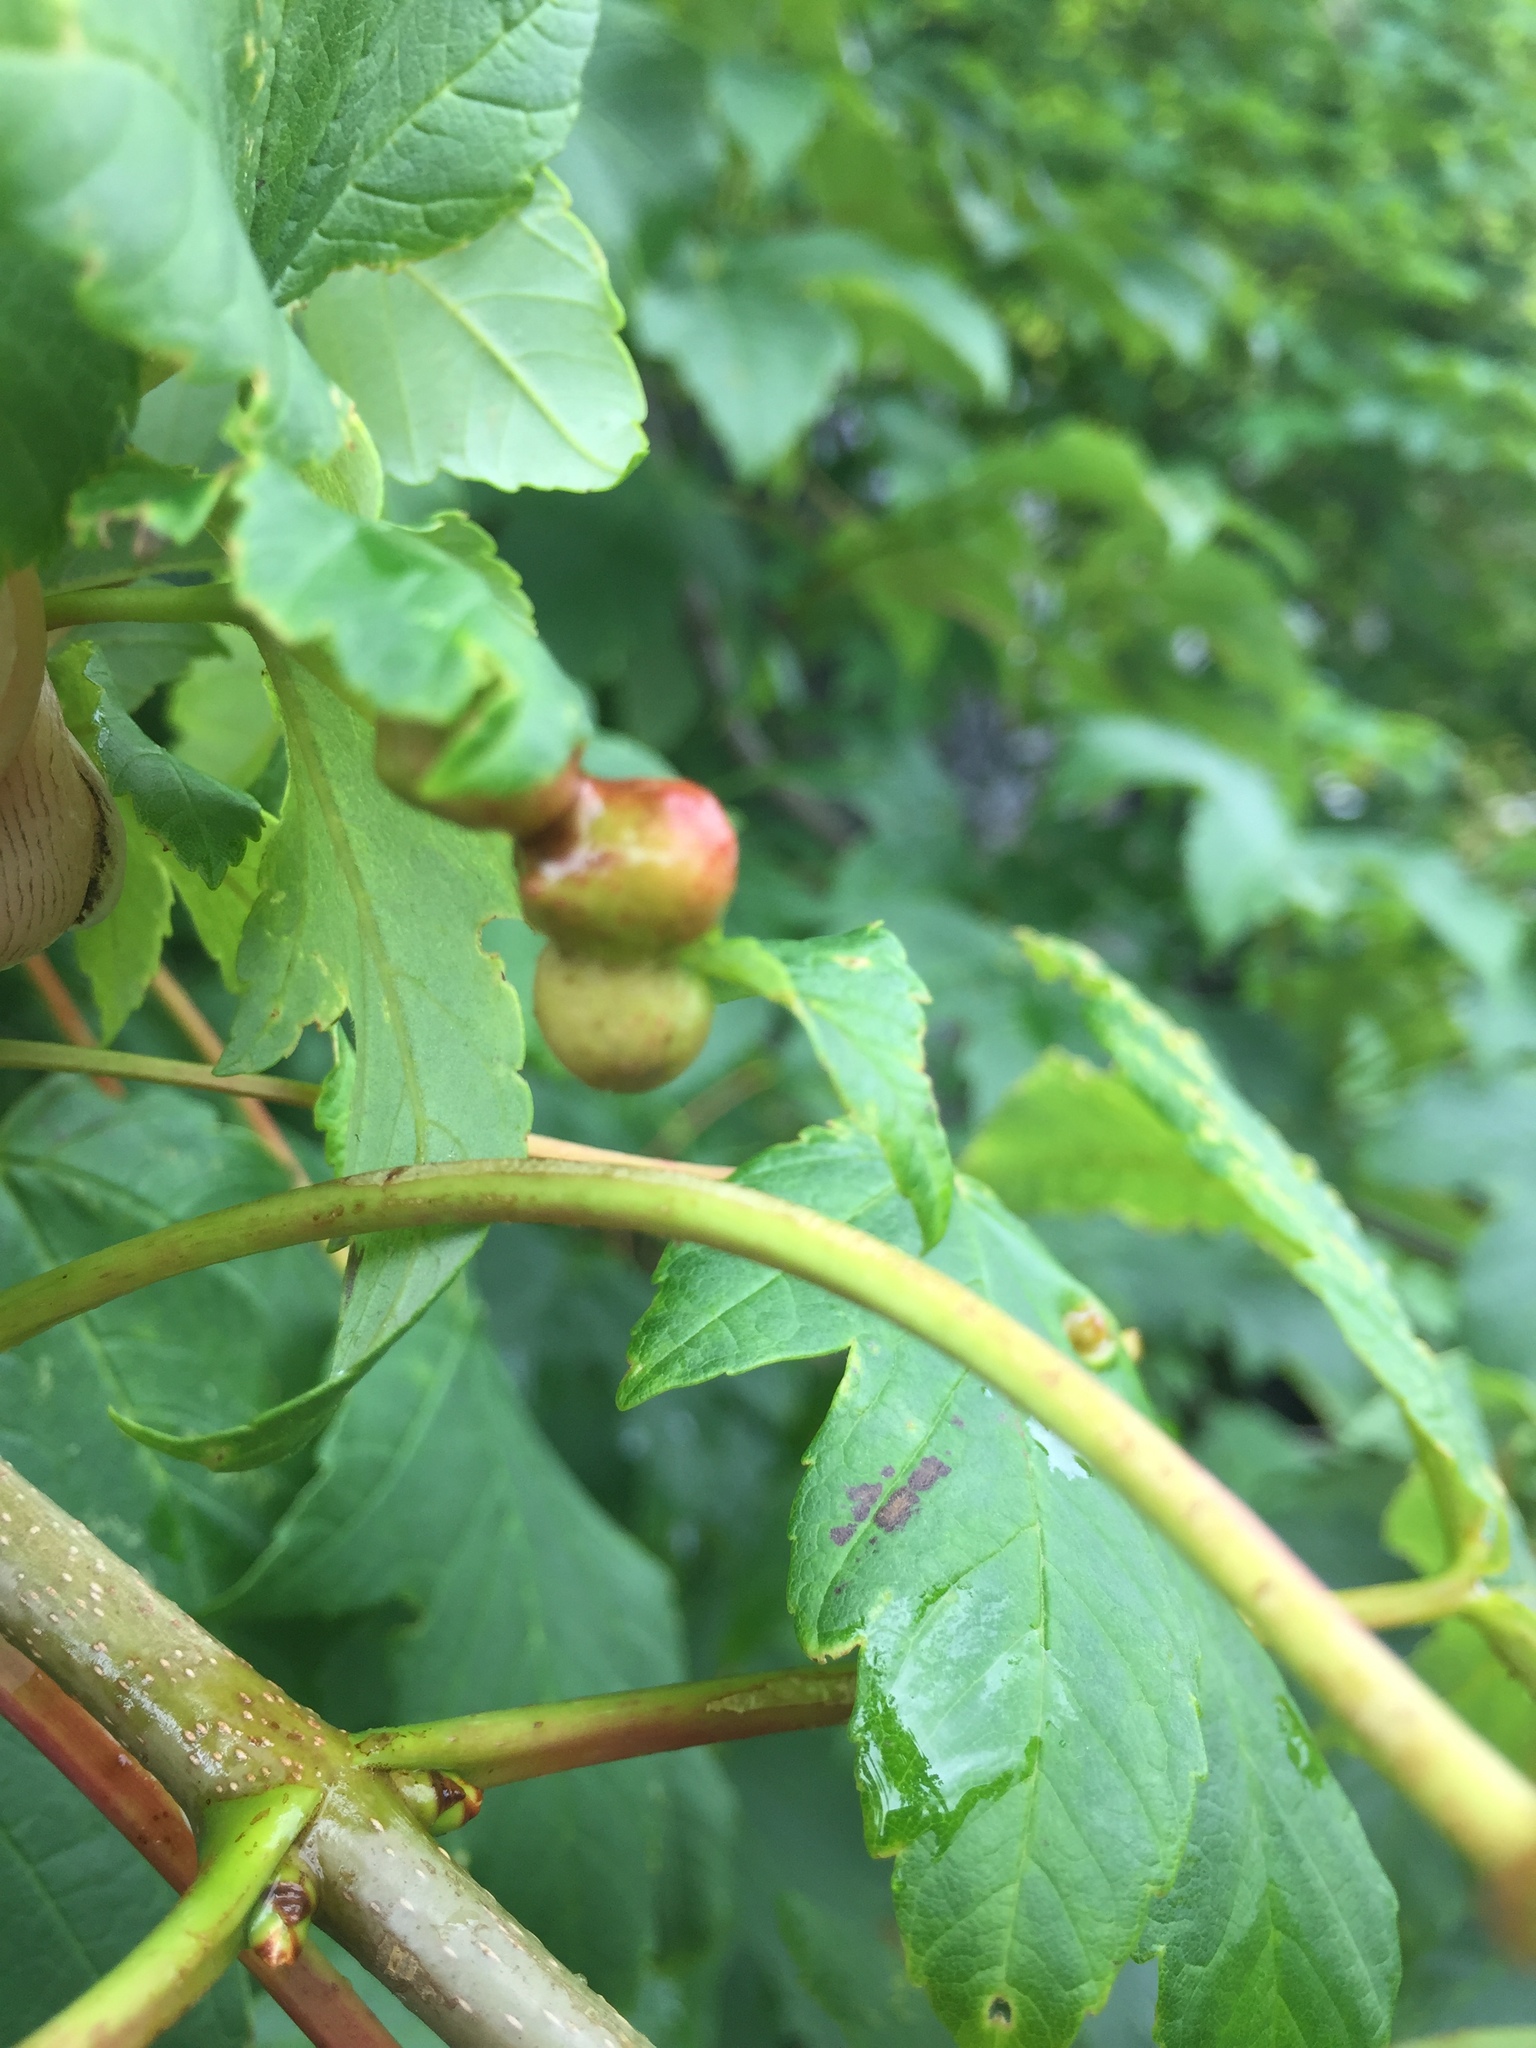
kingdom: Animalia
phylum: Arthropoda
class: Insecta
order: Hymenoptera
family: Cynipidae
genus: Pediaspis
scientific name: Pediaspis aceris
